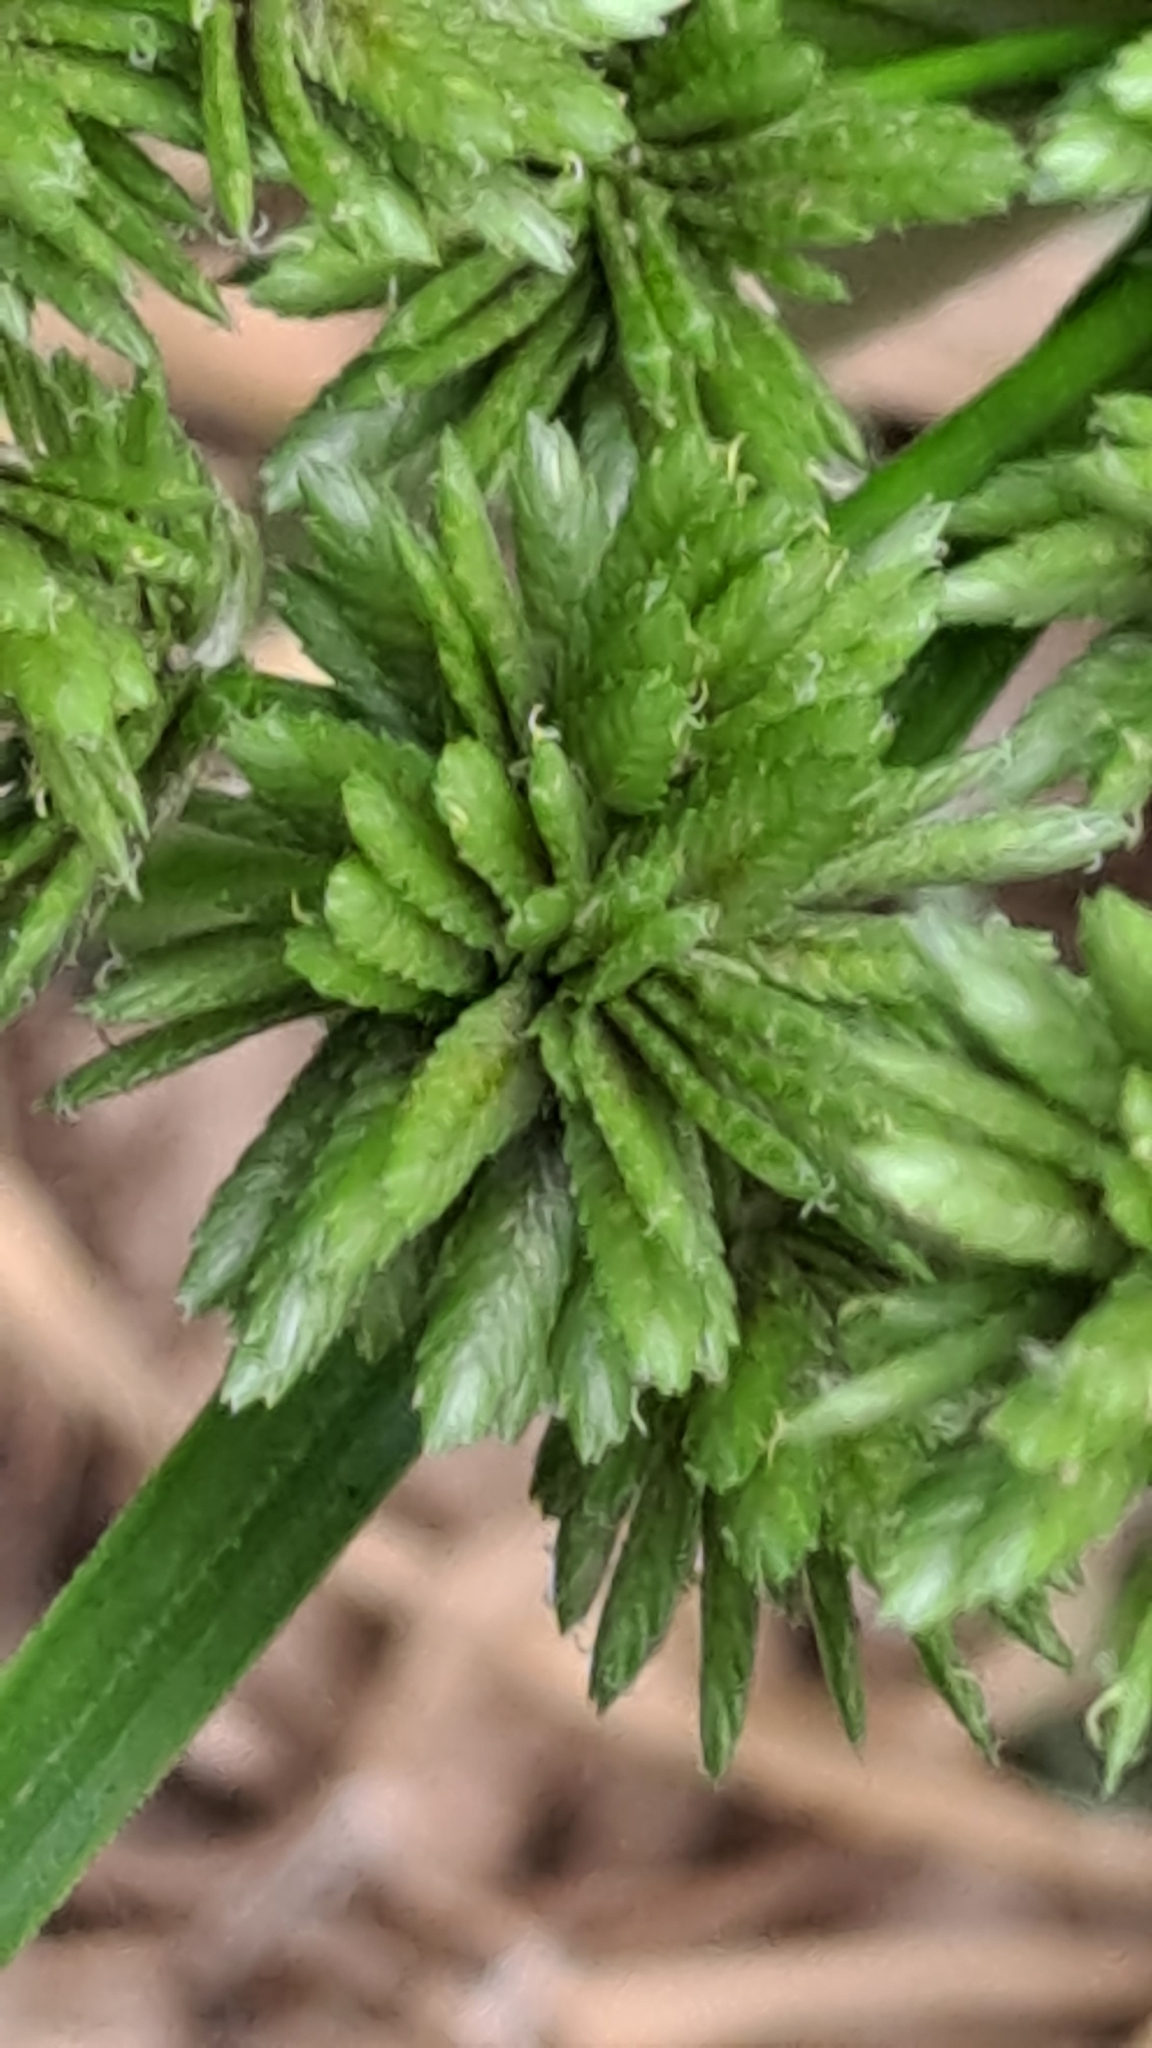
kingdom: Plantae
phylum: Tracheophyta
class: Liliopsida
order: Poales
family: Cyperaceae
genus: Cyperus
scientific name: Cyperus eragrostis
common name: Tall flatsedge
